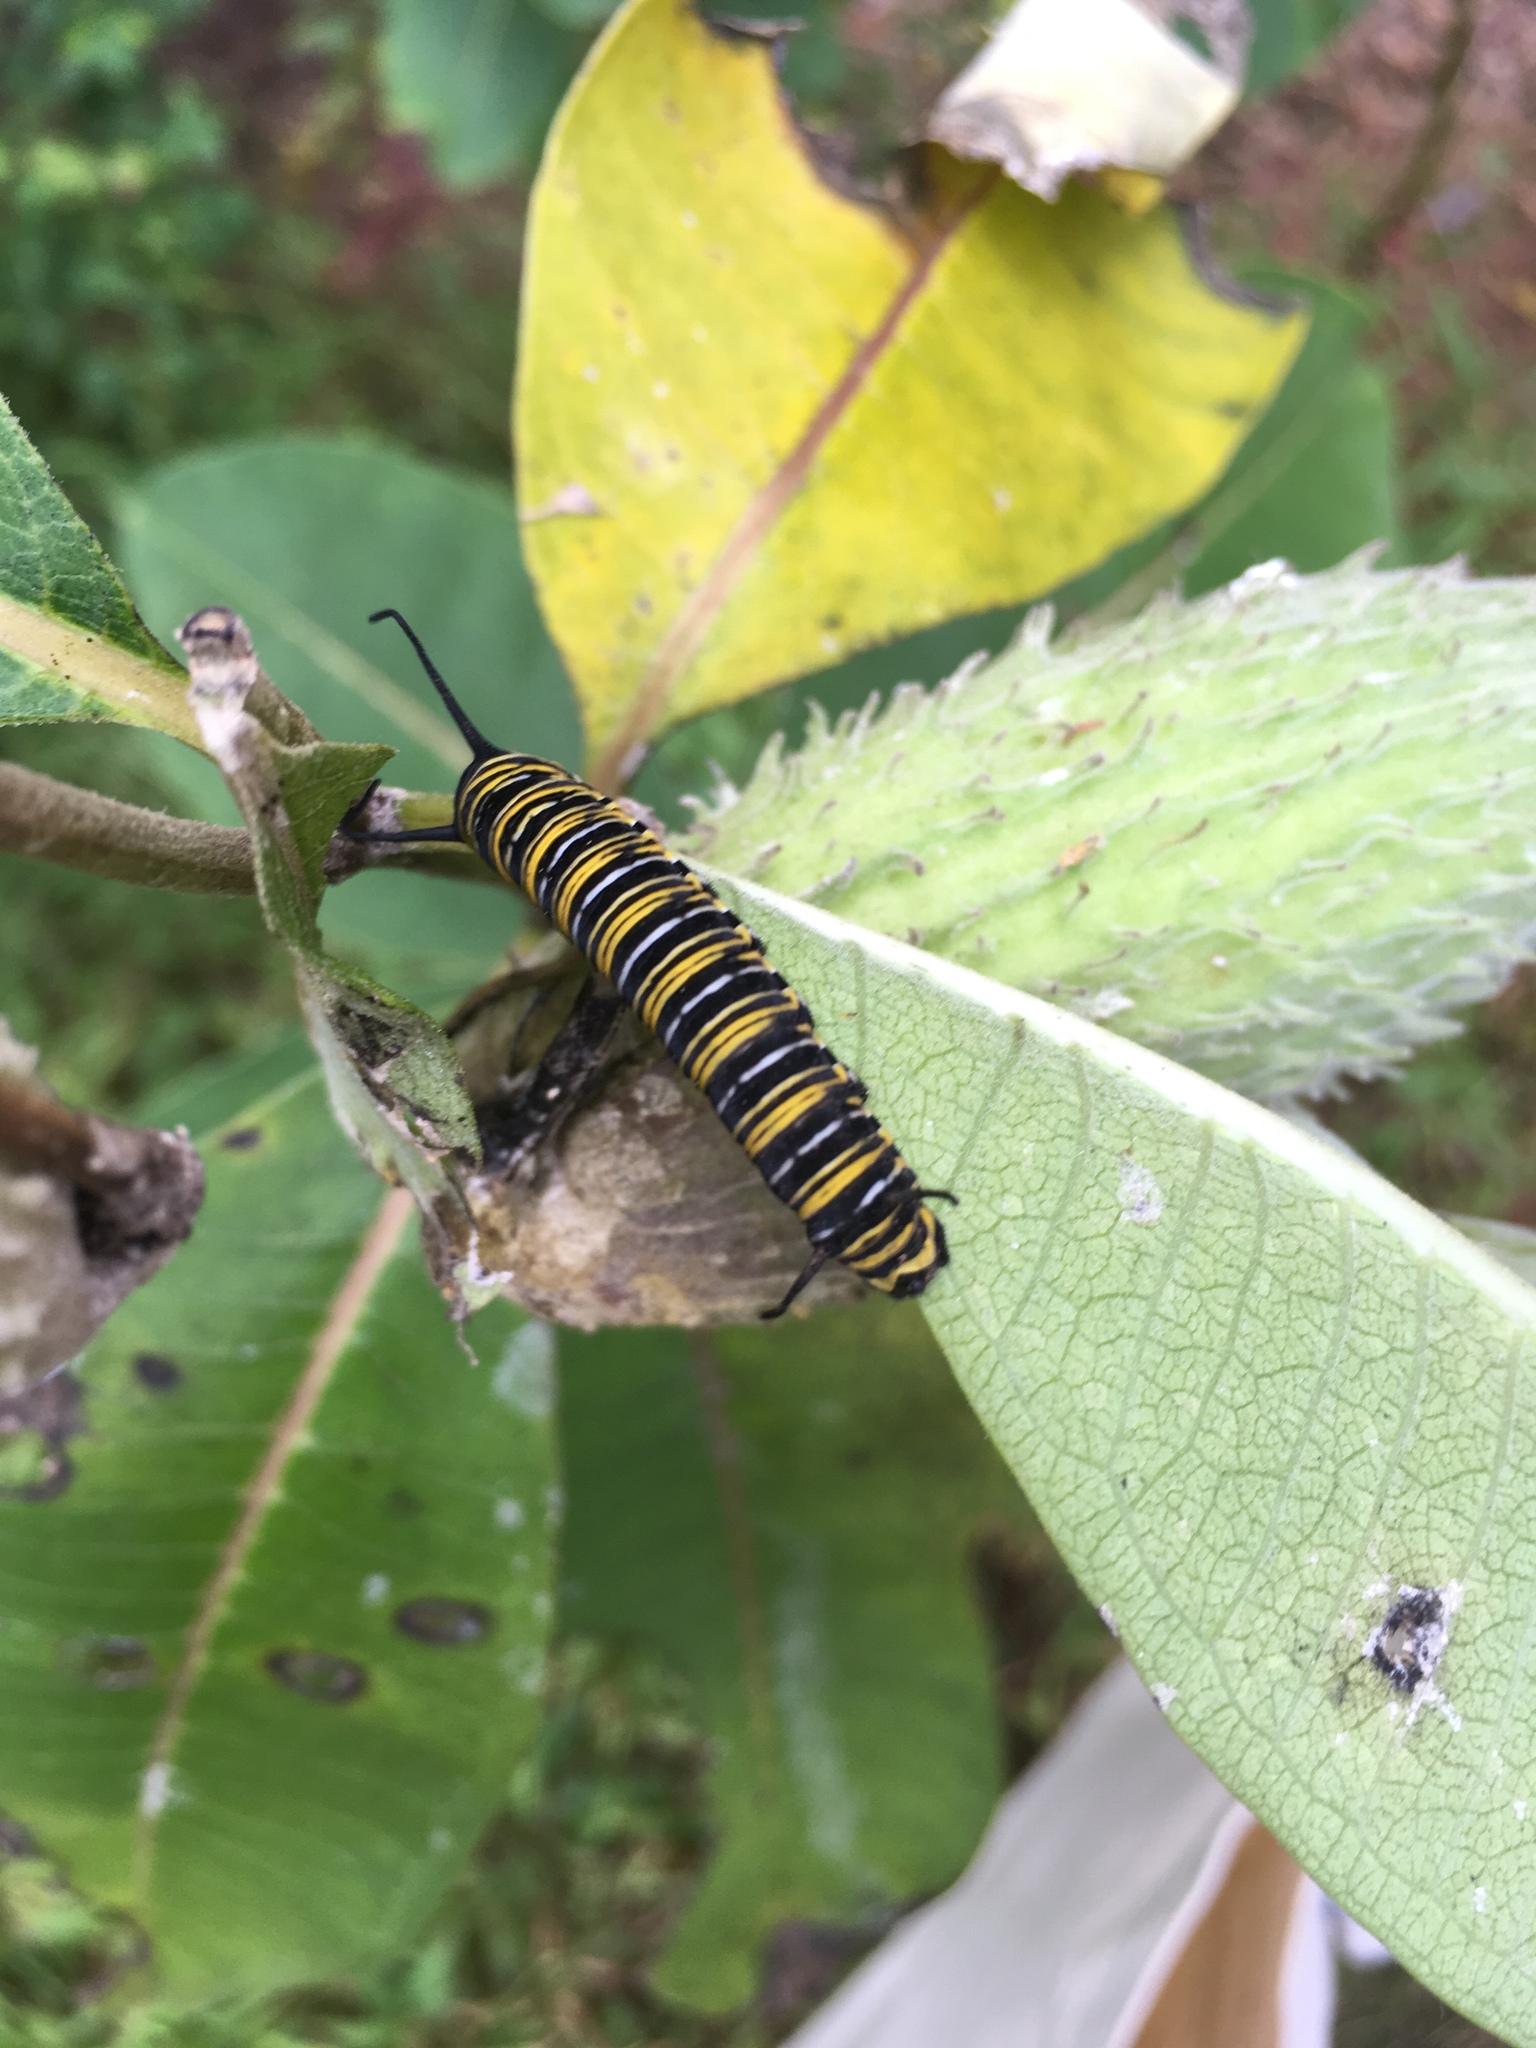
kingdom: Animalia
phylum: Arthropoda
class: Insecta
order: Lepidoptera
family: Nymphalidae
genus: Danaus
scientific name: Danaus plexippus
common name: Monarch
